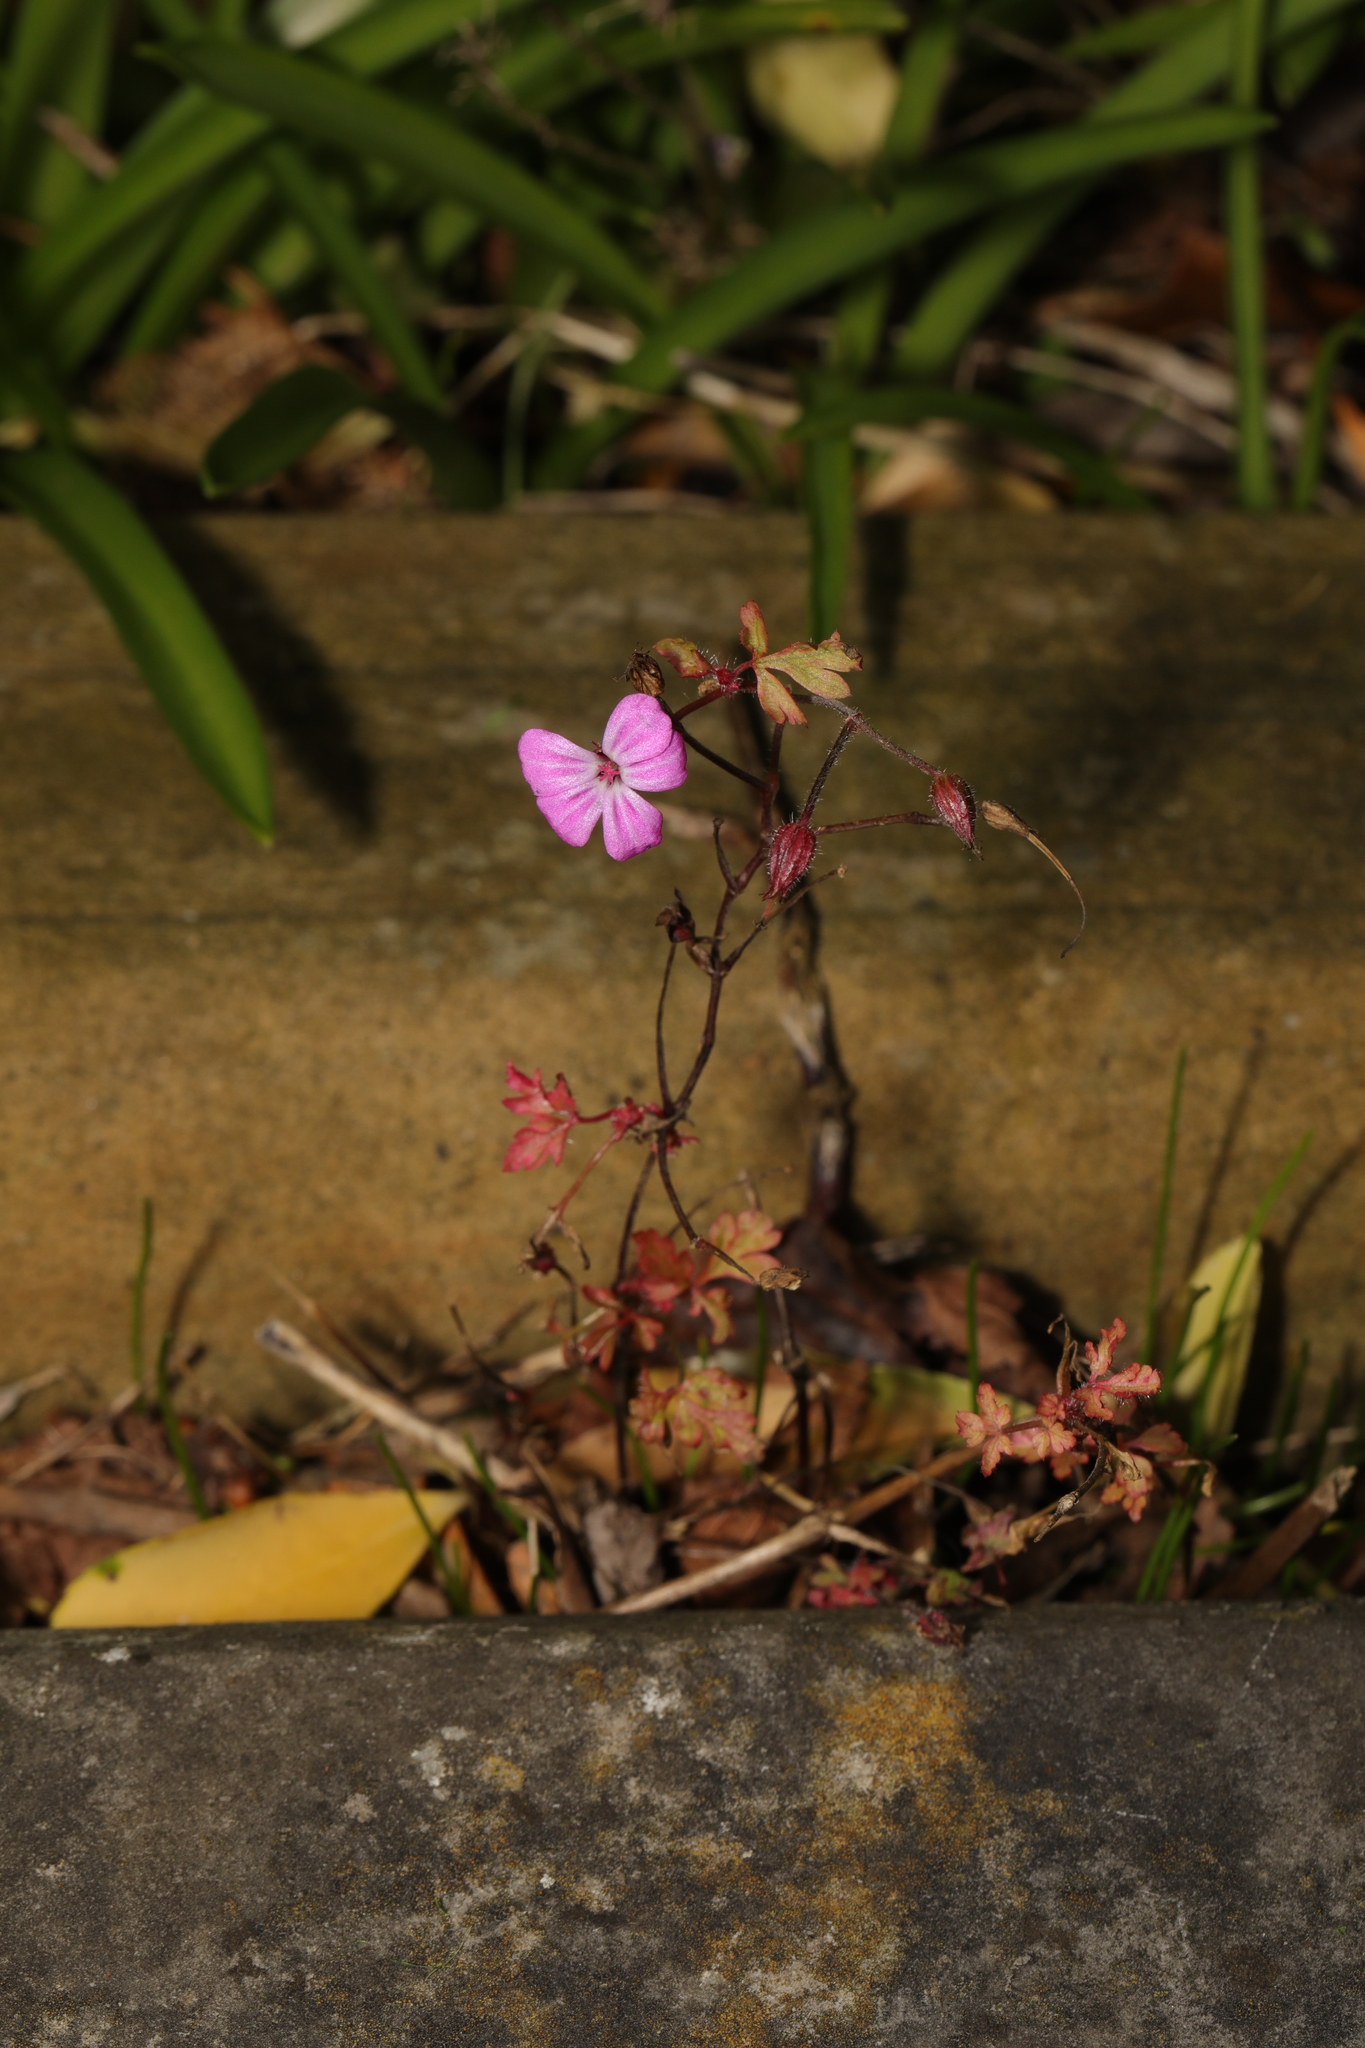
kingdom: Plantae
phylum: Tracheophyta
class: Magnoliopsida
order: Geraniales
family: Geraniaceae
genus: Geranium
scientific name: Geranium robertianum
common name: Herb-robert
